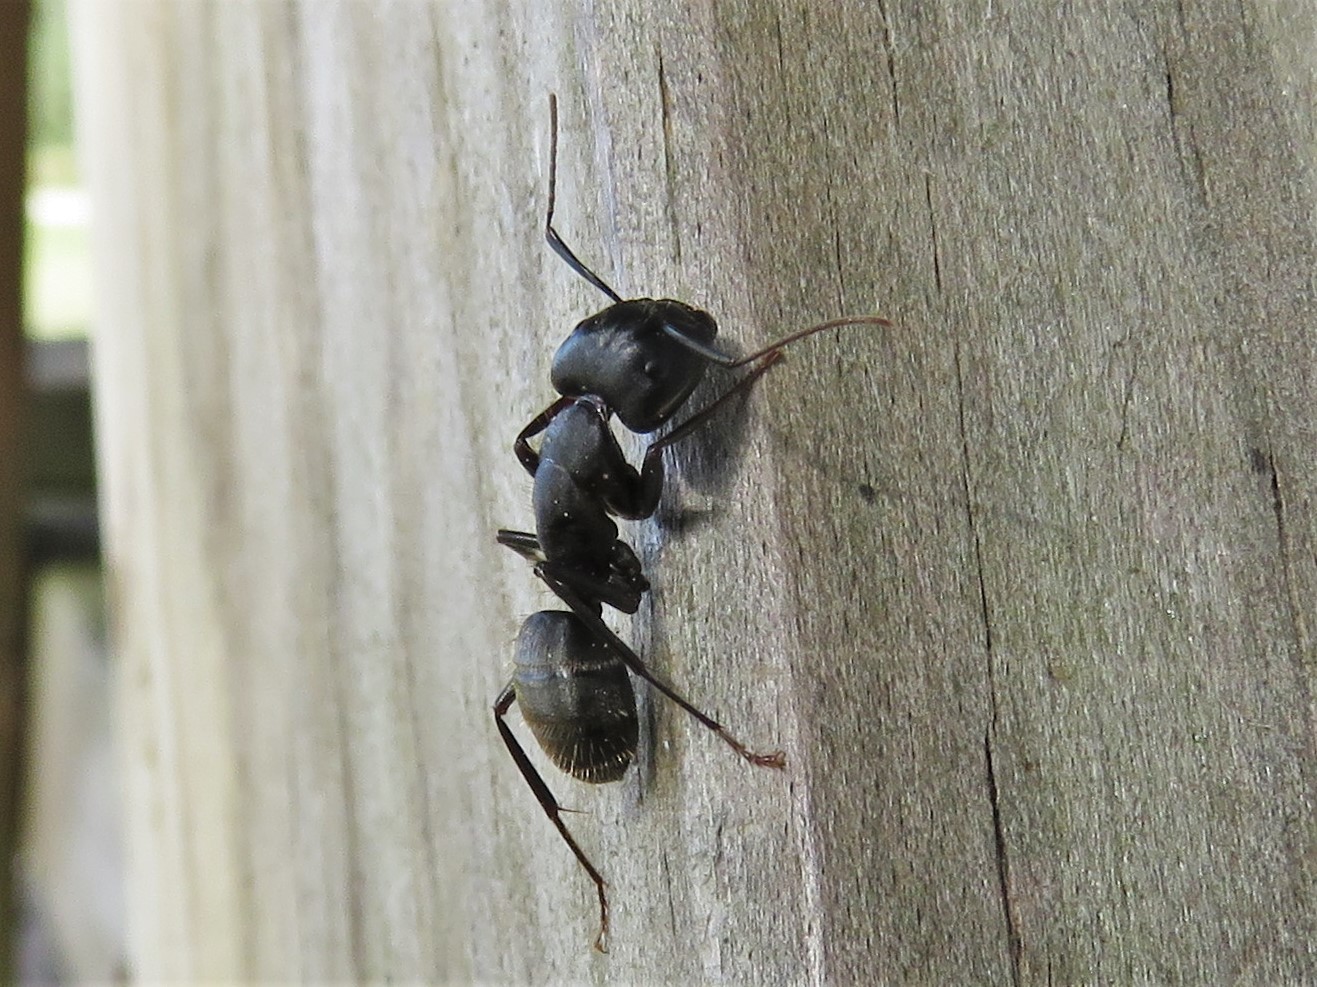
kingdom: Animalia
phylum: Arthropoda
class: Insecta
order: Hymenoptera
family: Formicidae
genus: Camponotus
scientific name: Camponotus pennsylvanicus
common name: Black carpenter ant
